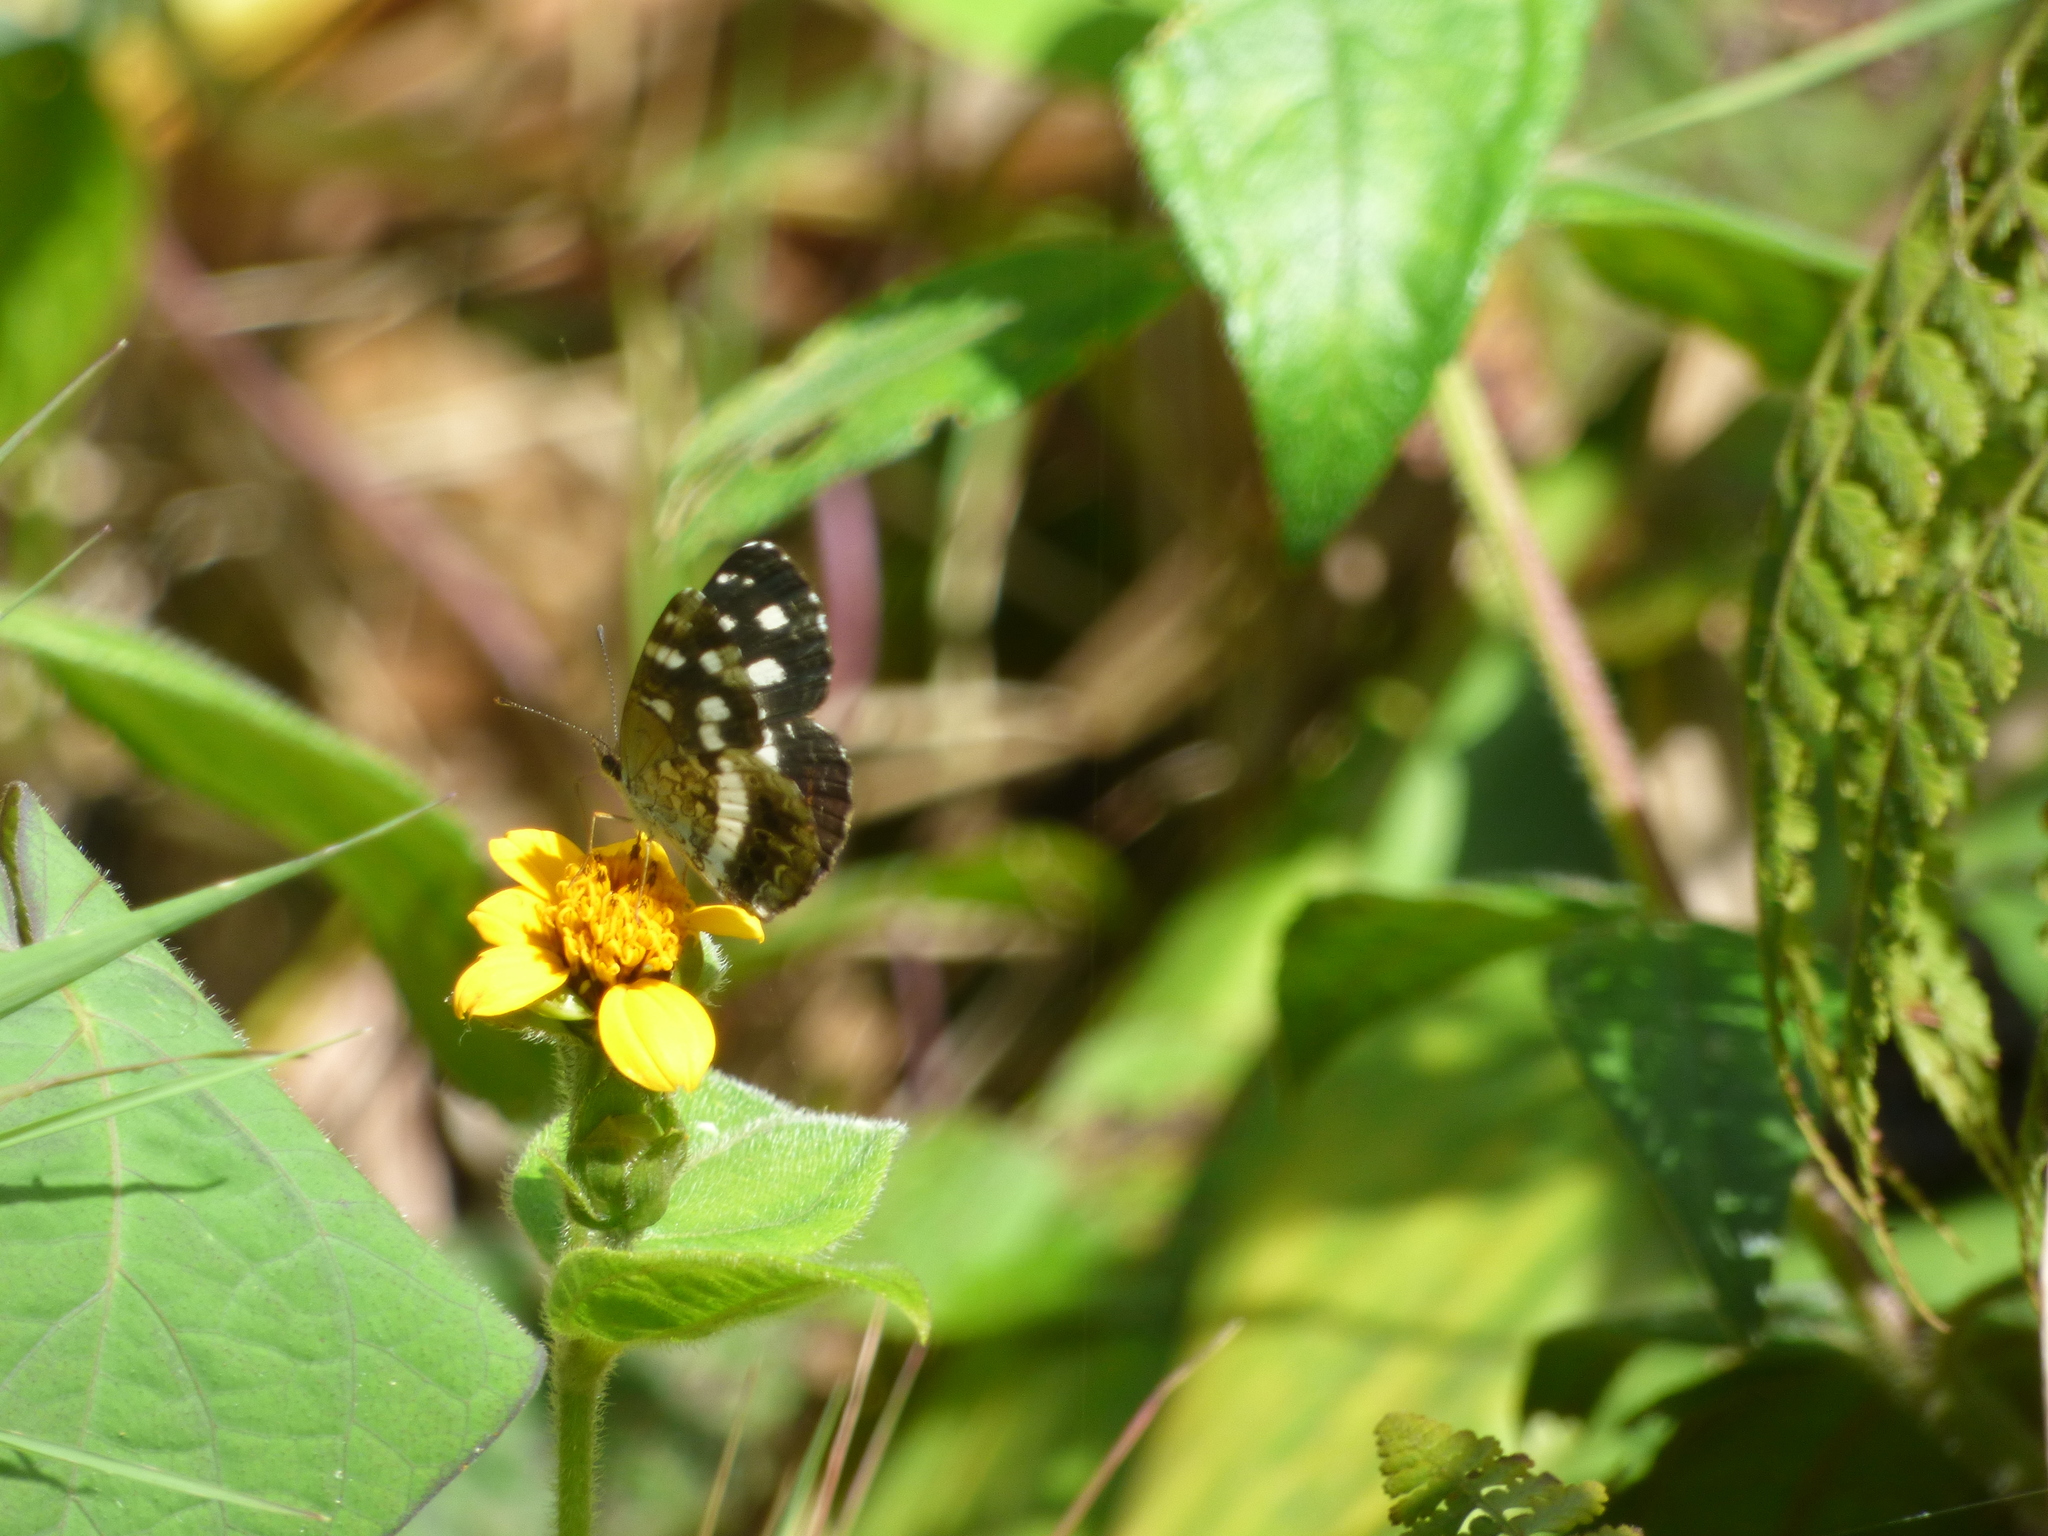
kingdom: Animalia
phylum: Arthropoda
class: Insecta
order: Lepidoptera
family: Nymphalidae
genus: Janatella
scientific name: Janatella fellula
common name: Colombian crescent
